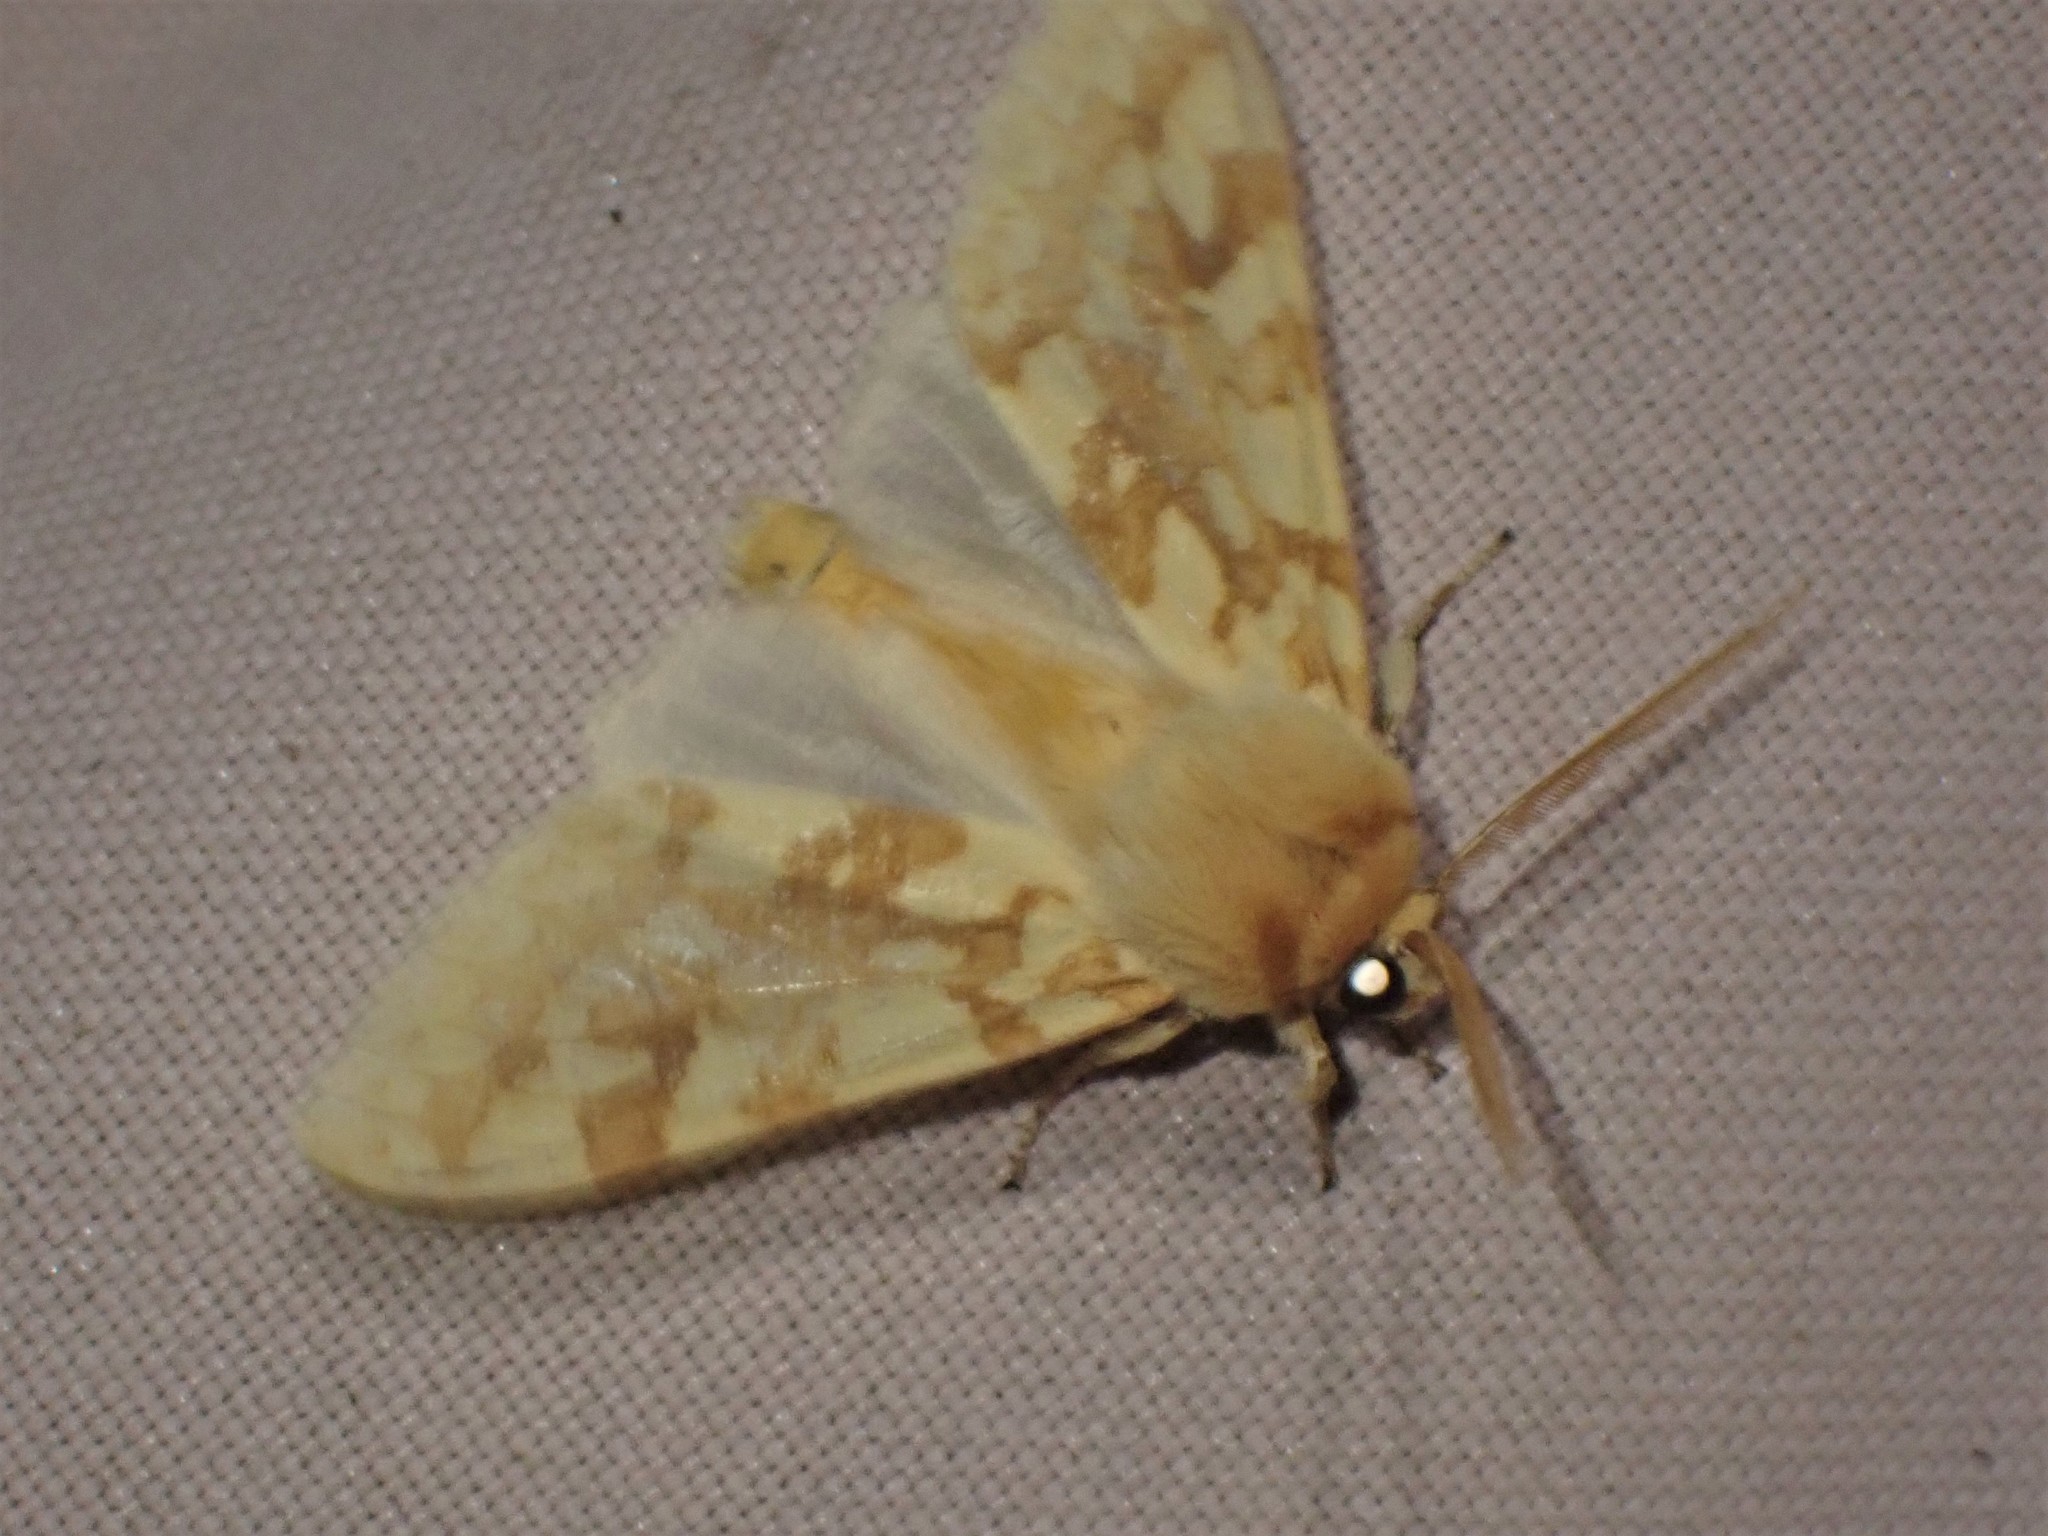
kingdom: Animalia
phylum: Arthropoda
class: Insecta
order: Lepidoptera
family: Erebidae
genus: Lophocampa
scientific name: Lophocampa maculata
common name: Spotted tussock moth
